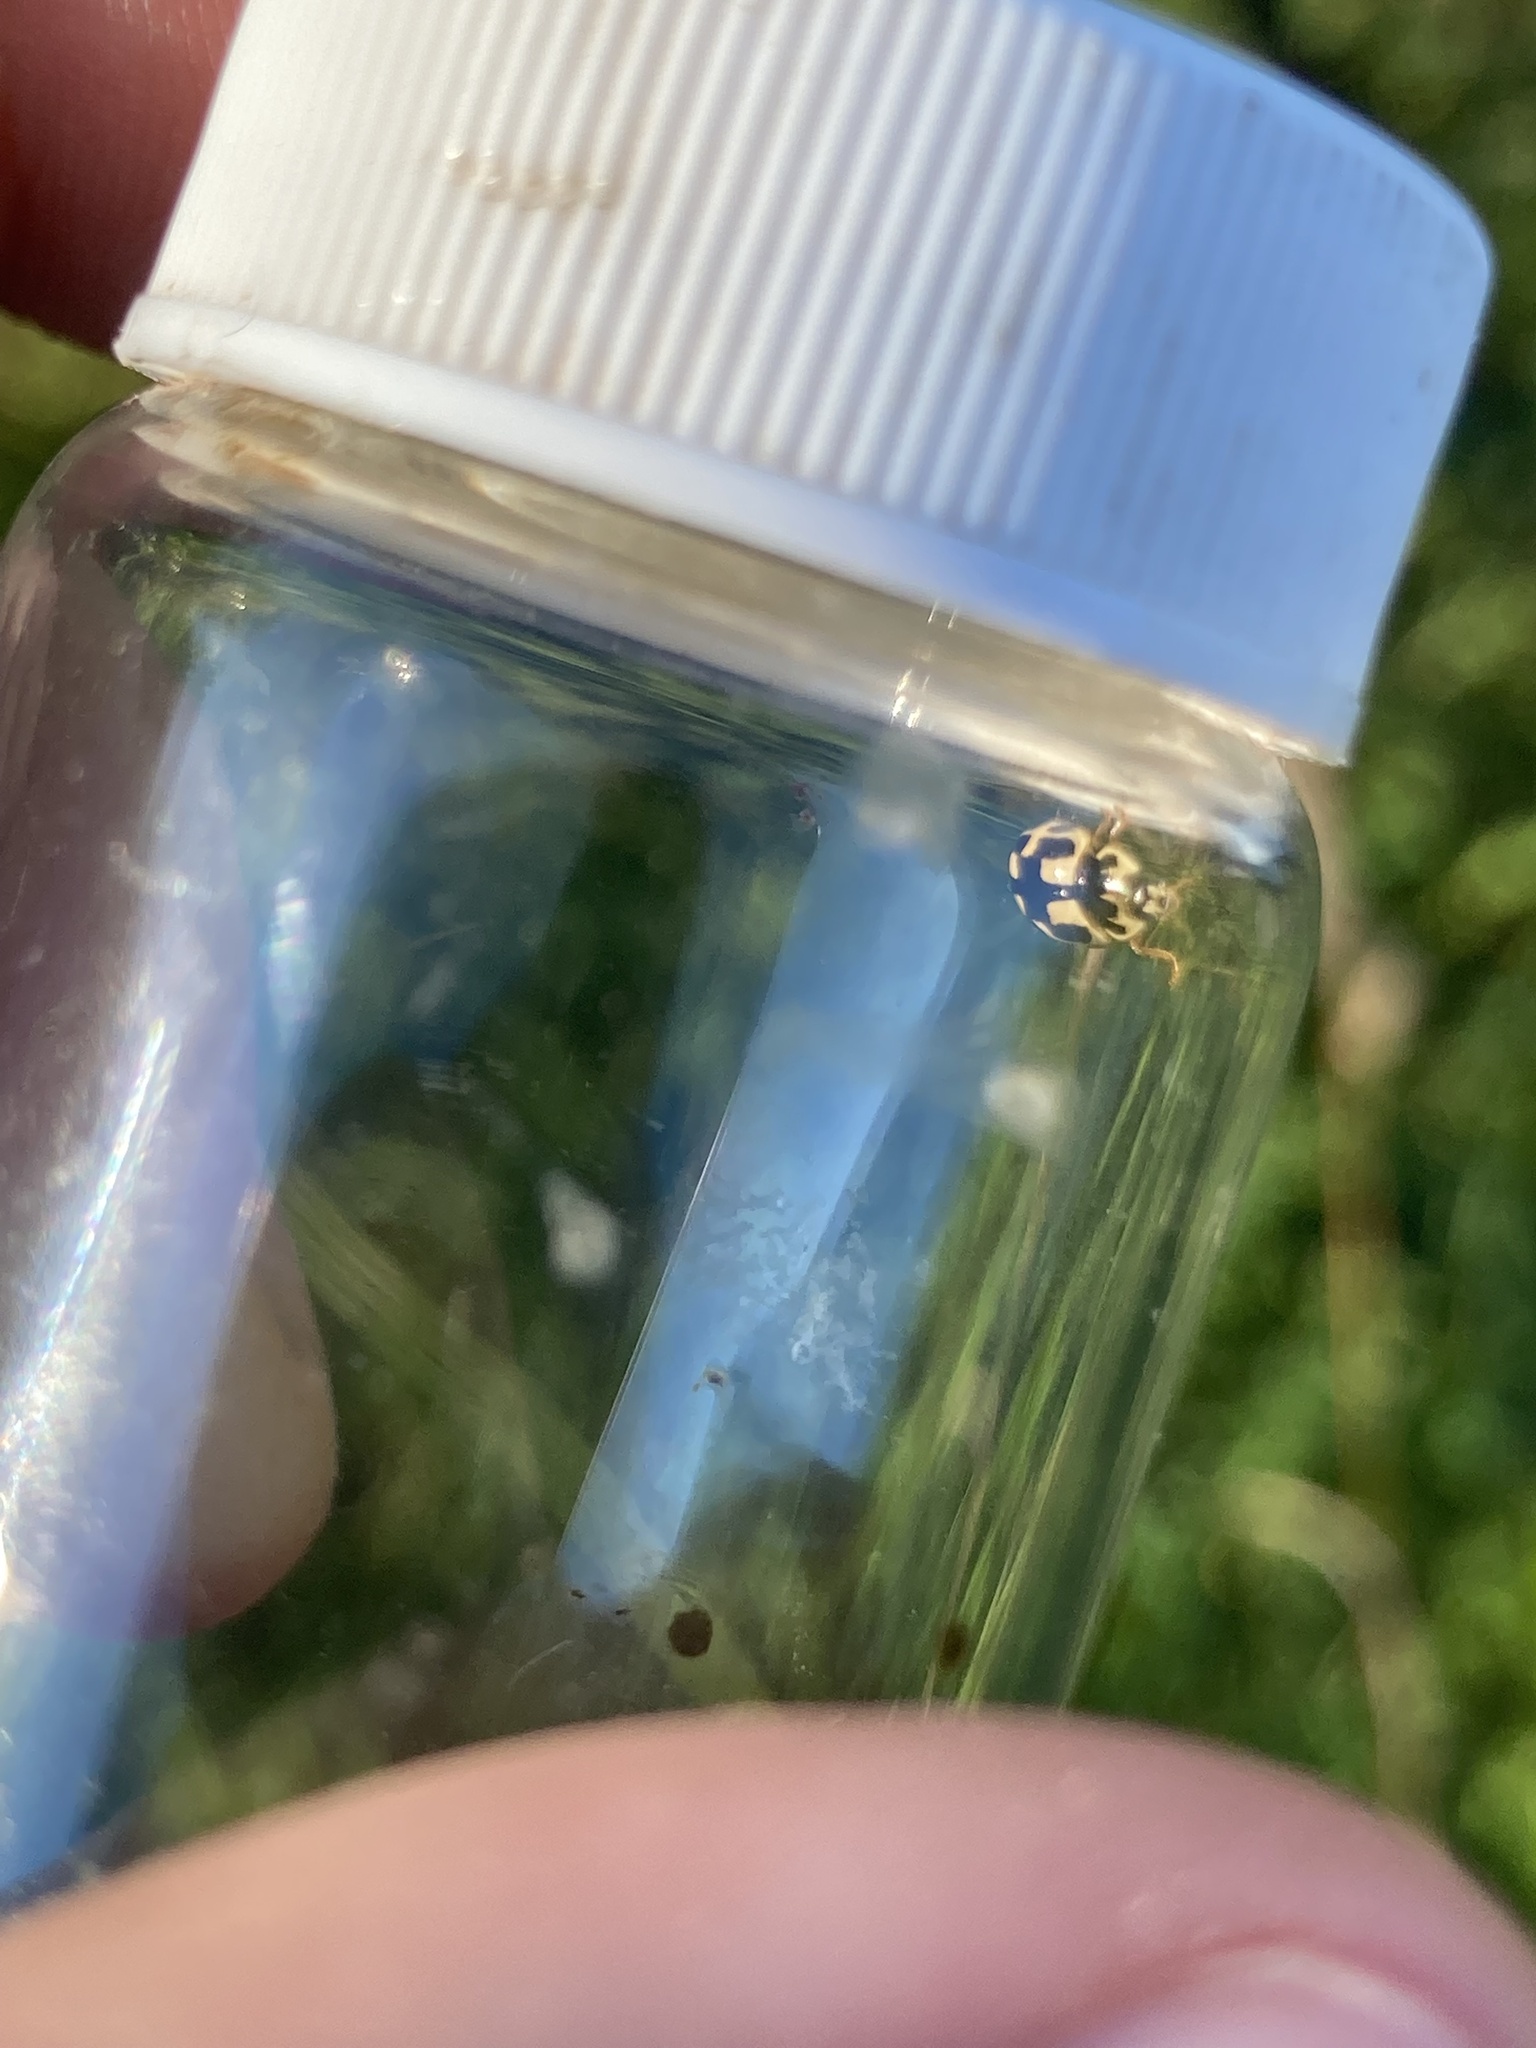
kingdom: Animalia
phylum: Arthropoda
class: Insecta
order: Coleoptera
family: Coccinellidae
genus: Propylaea
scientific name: Propylaea quatuordecimpunctata
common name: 14-spotted ladybird beetle
